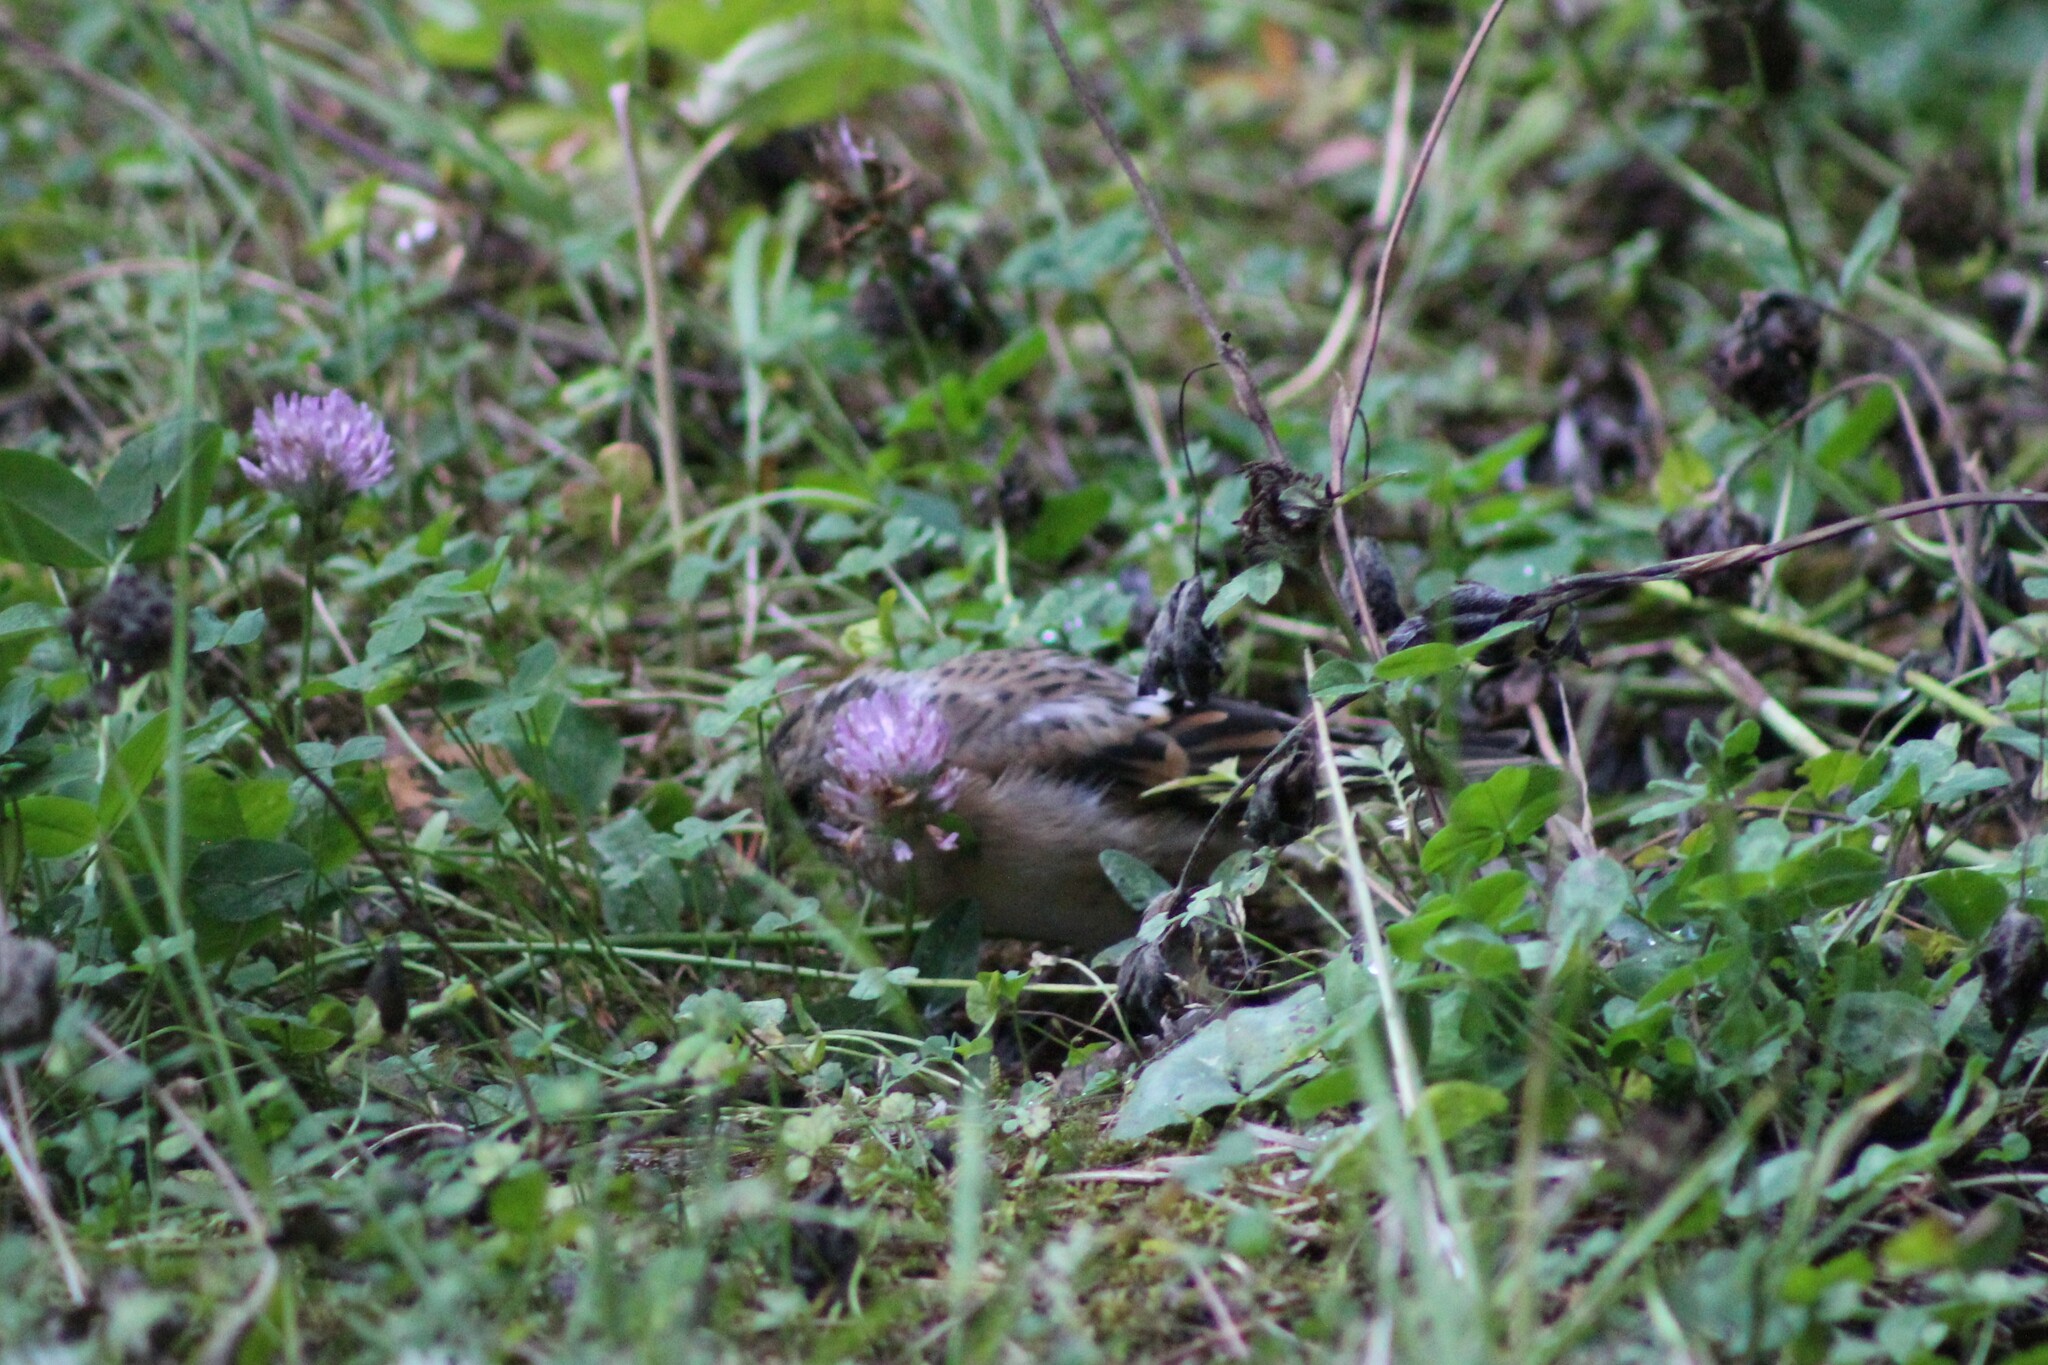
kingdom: Animalia
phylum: Chordata
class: Aves
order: Passeriformes
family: Fringillidae
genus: Fringilla
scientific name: Fringilla coelebs
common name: Common chaffinch
